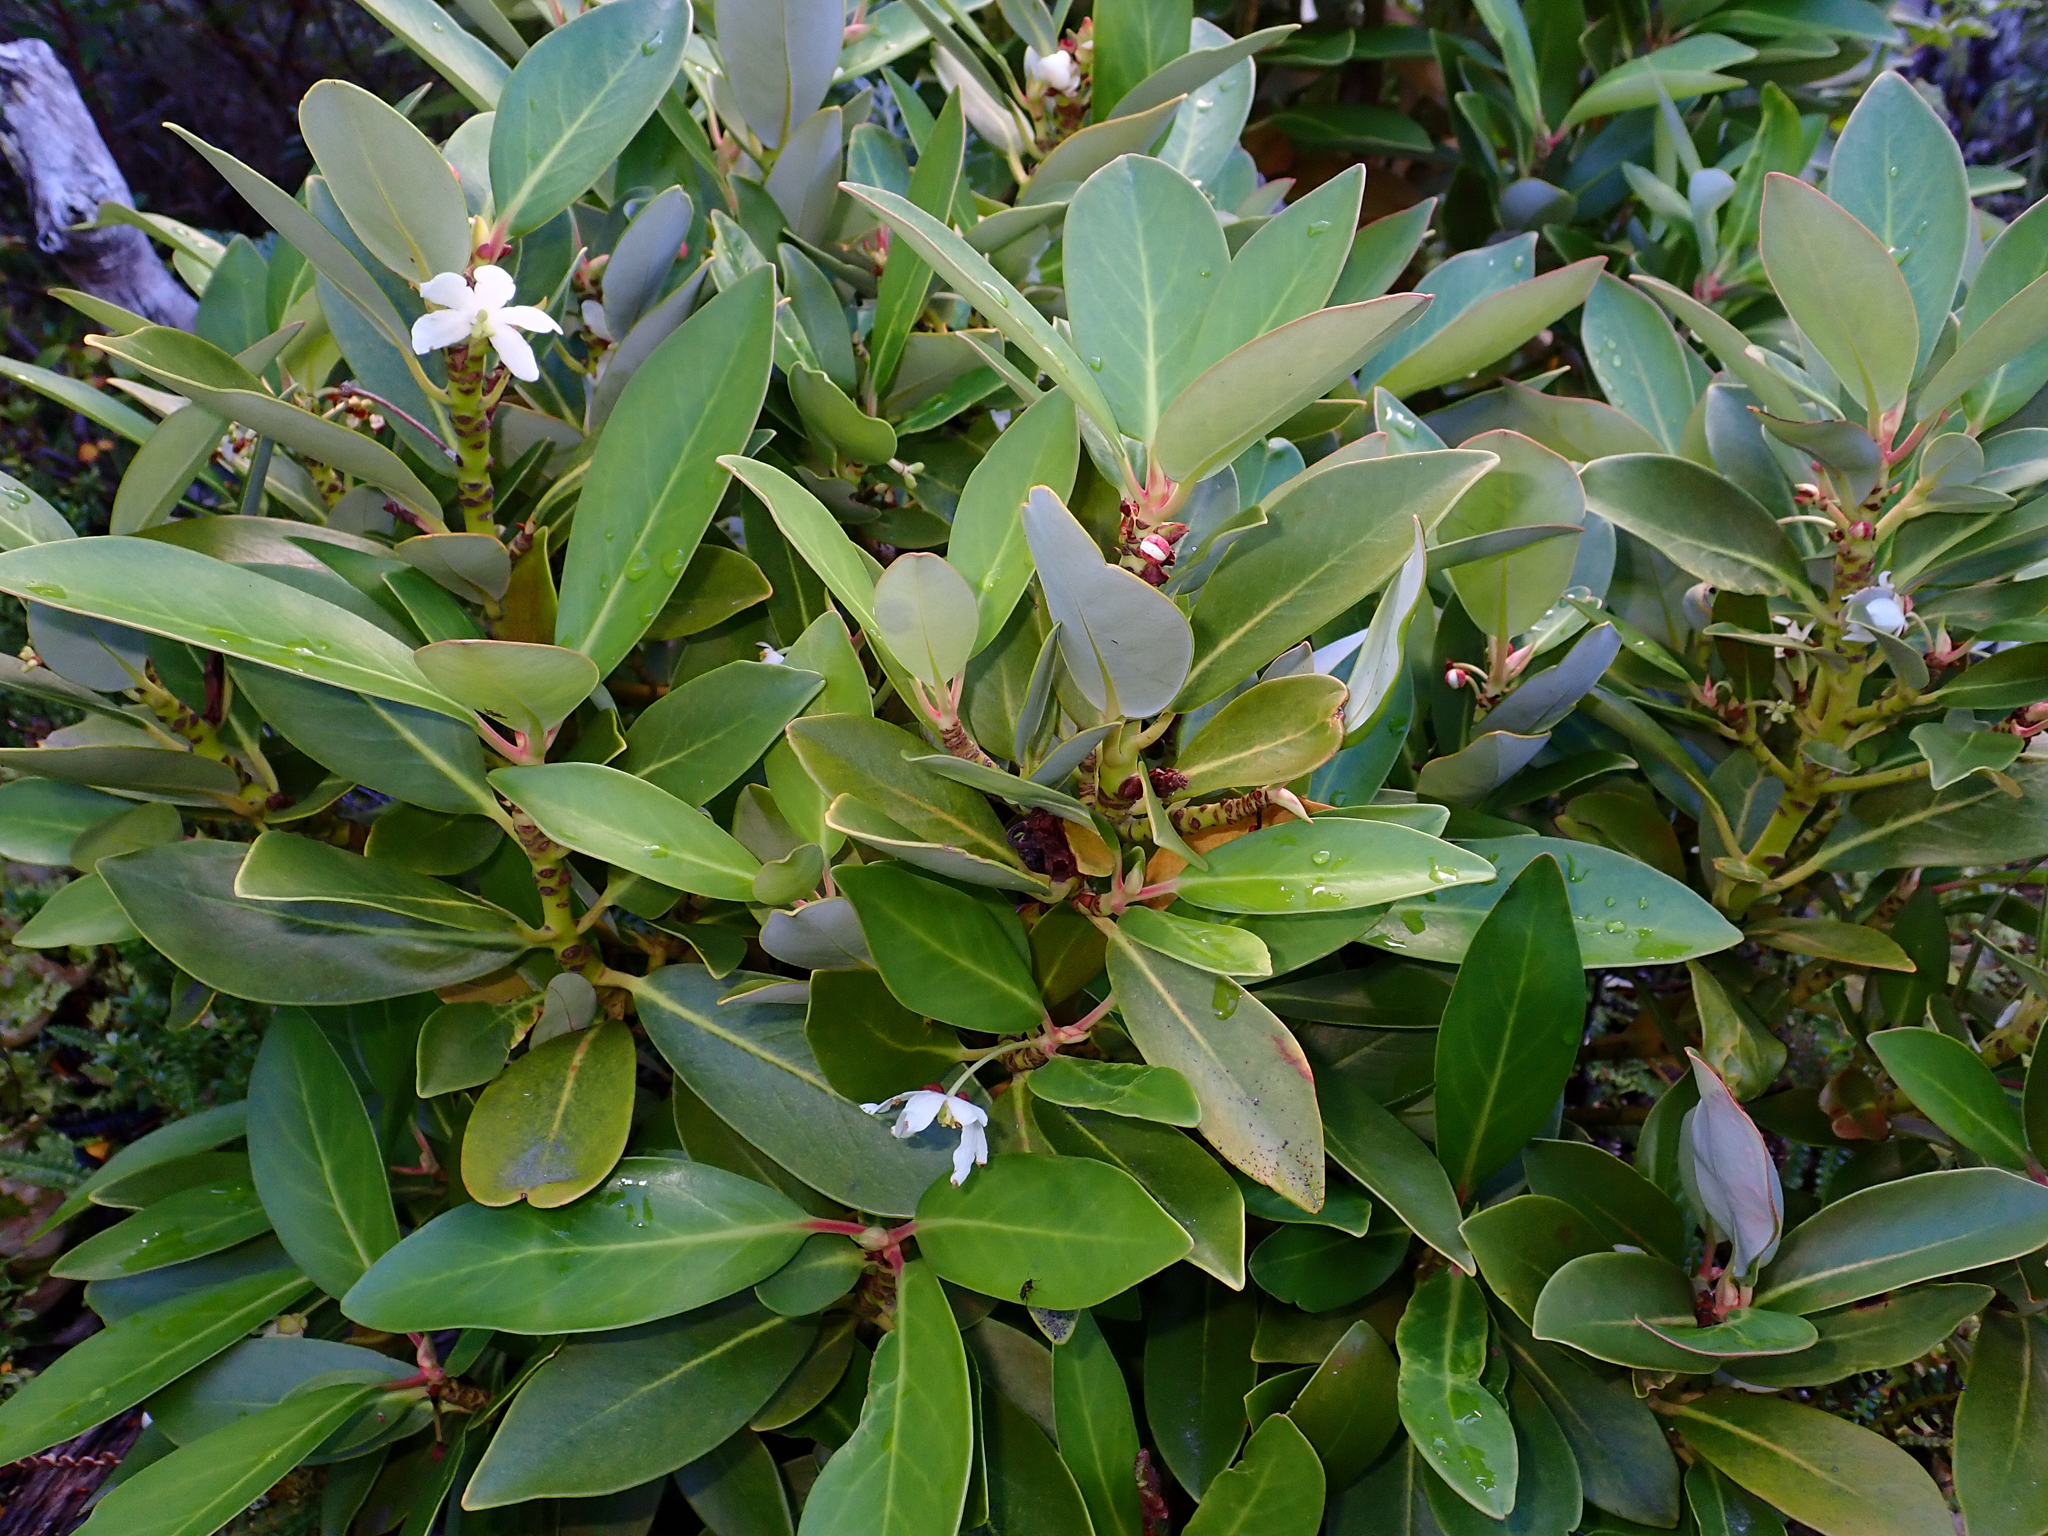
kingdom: Plantae
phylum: Tracheophyta
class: Magnoliopsida
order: Canellales
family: Winteraceae
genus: Drimys
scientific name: Drimys winteri
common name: Winter's-bark
